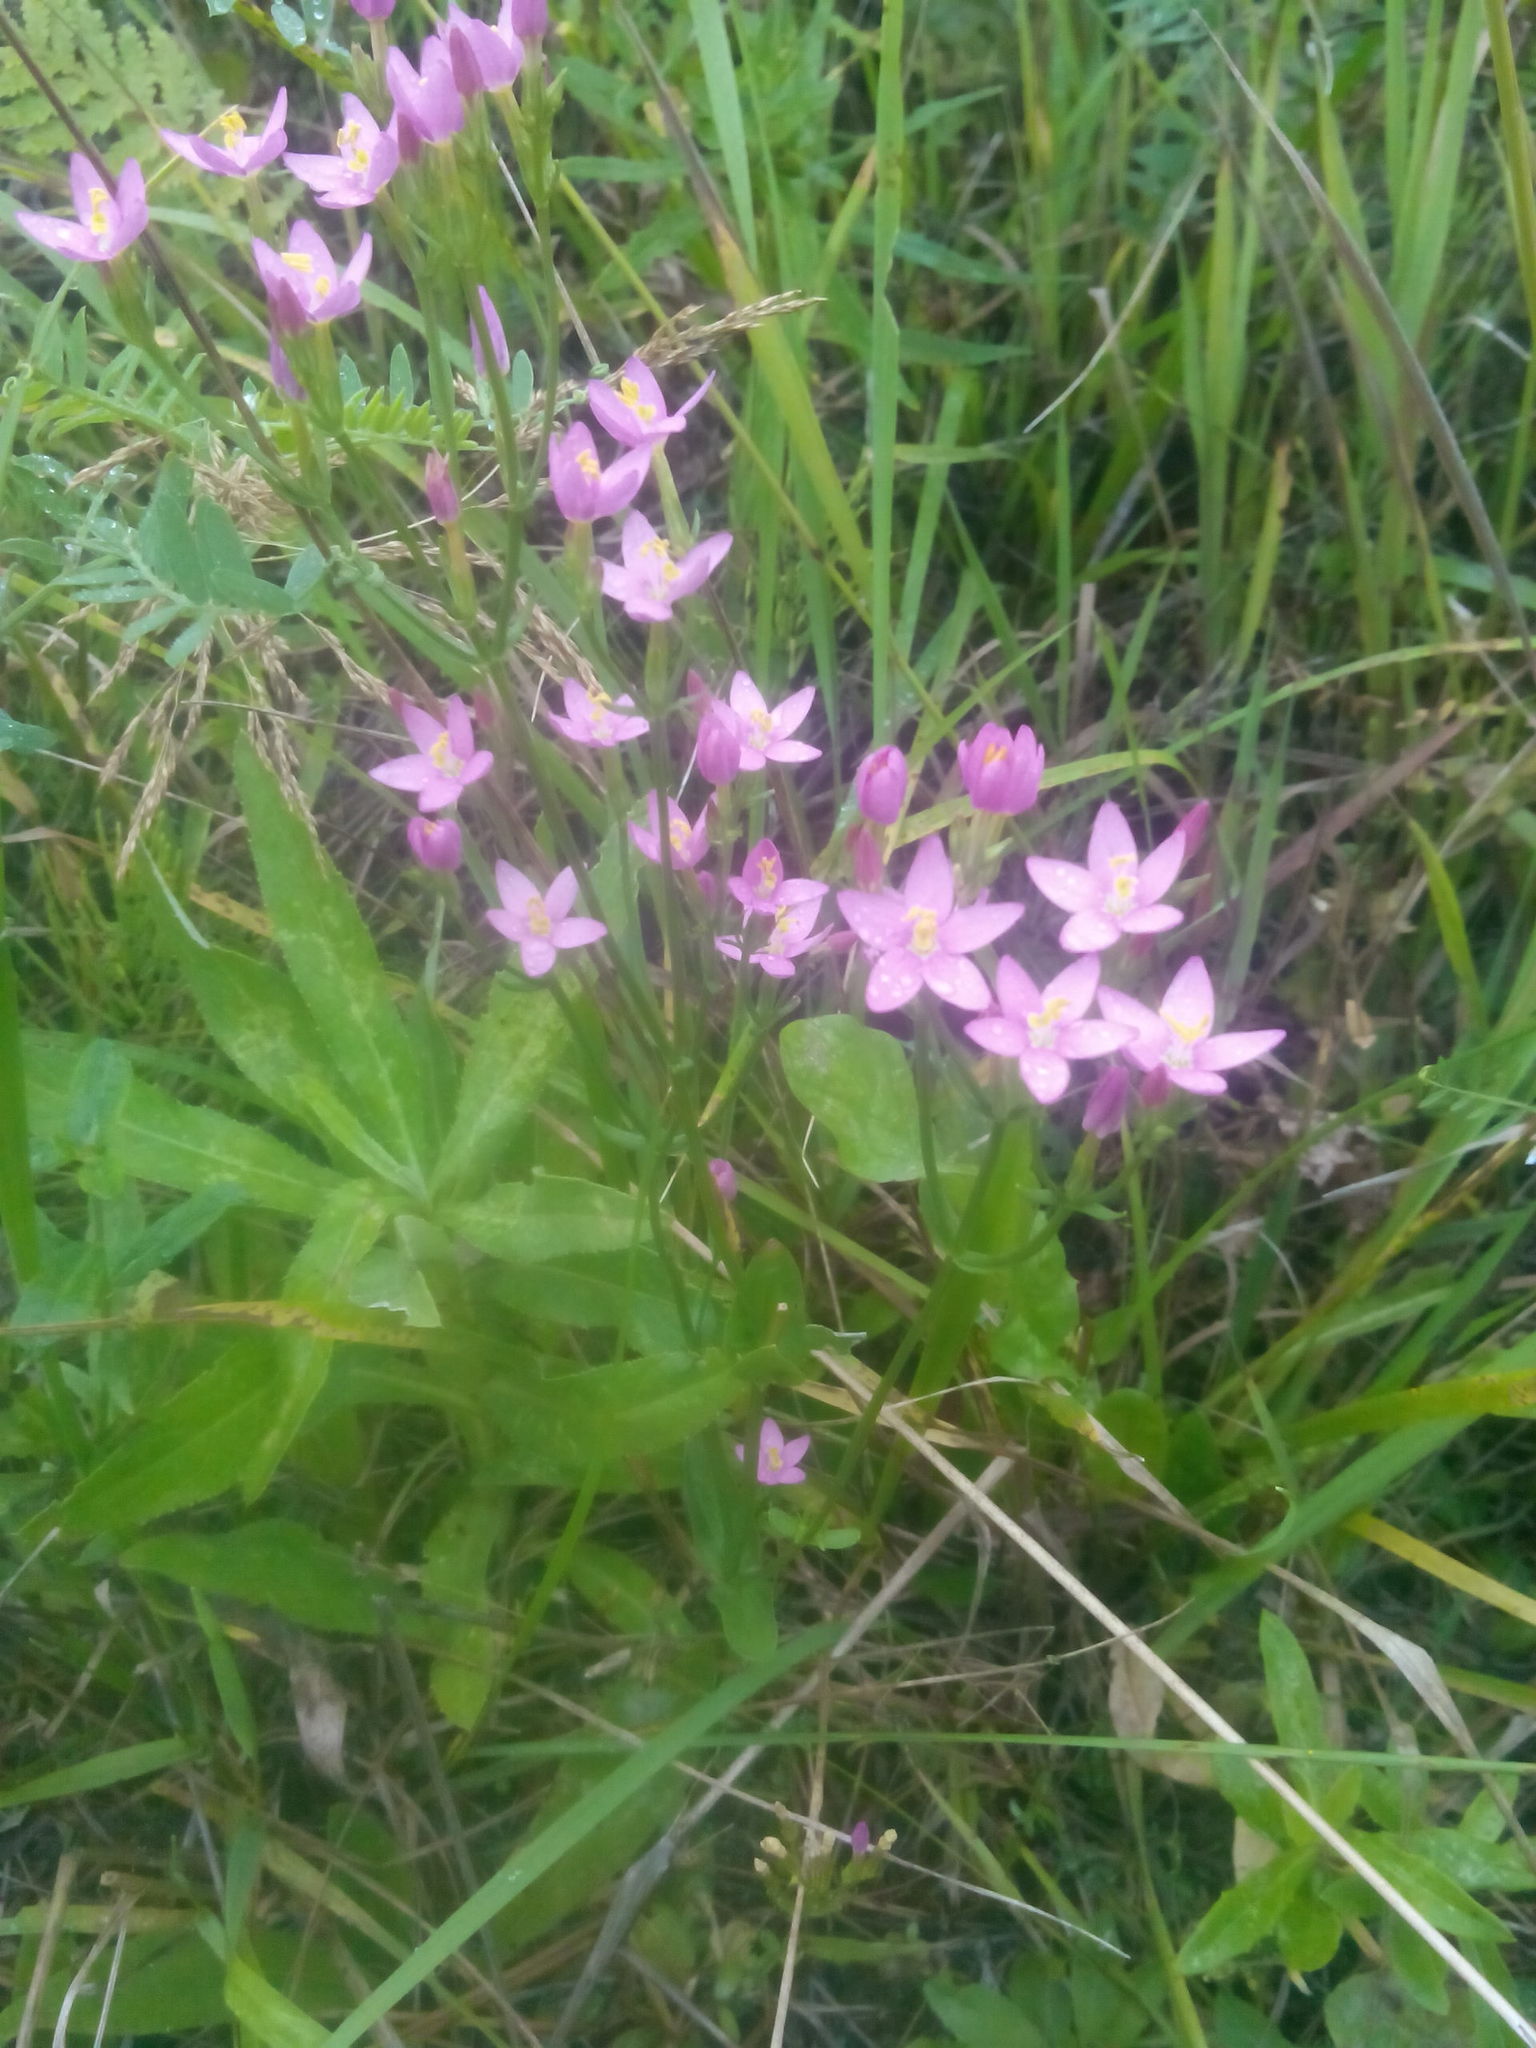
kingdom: Plantae
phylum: Tracheophyta
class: Magnoliopsida
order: Gentianales
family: Gentianaceae
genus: Centaurium
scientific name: Centaurium erythraea
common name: Common centaury
